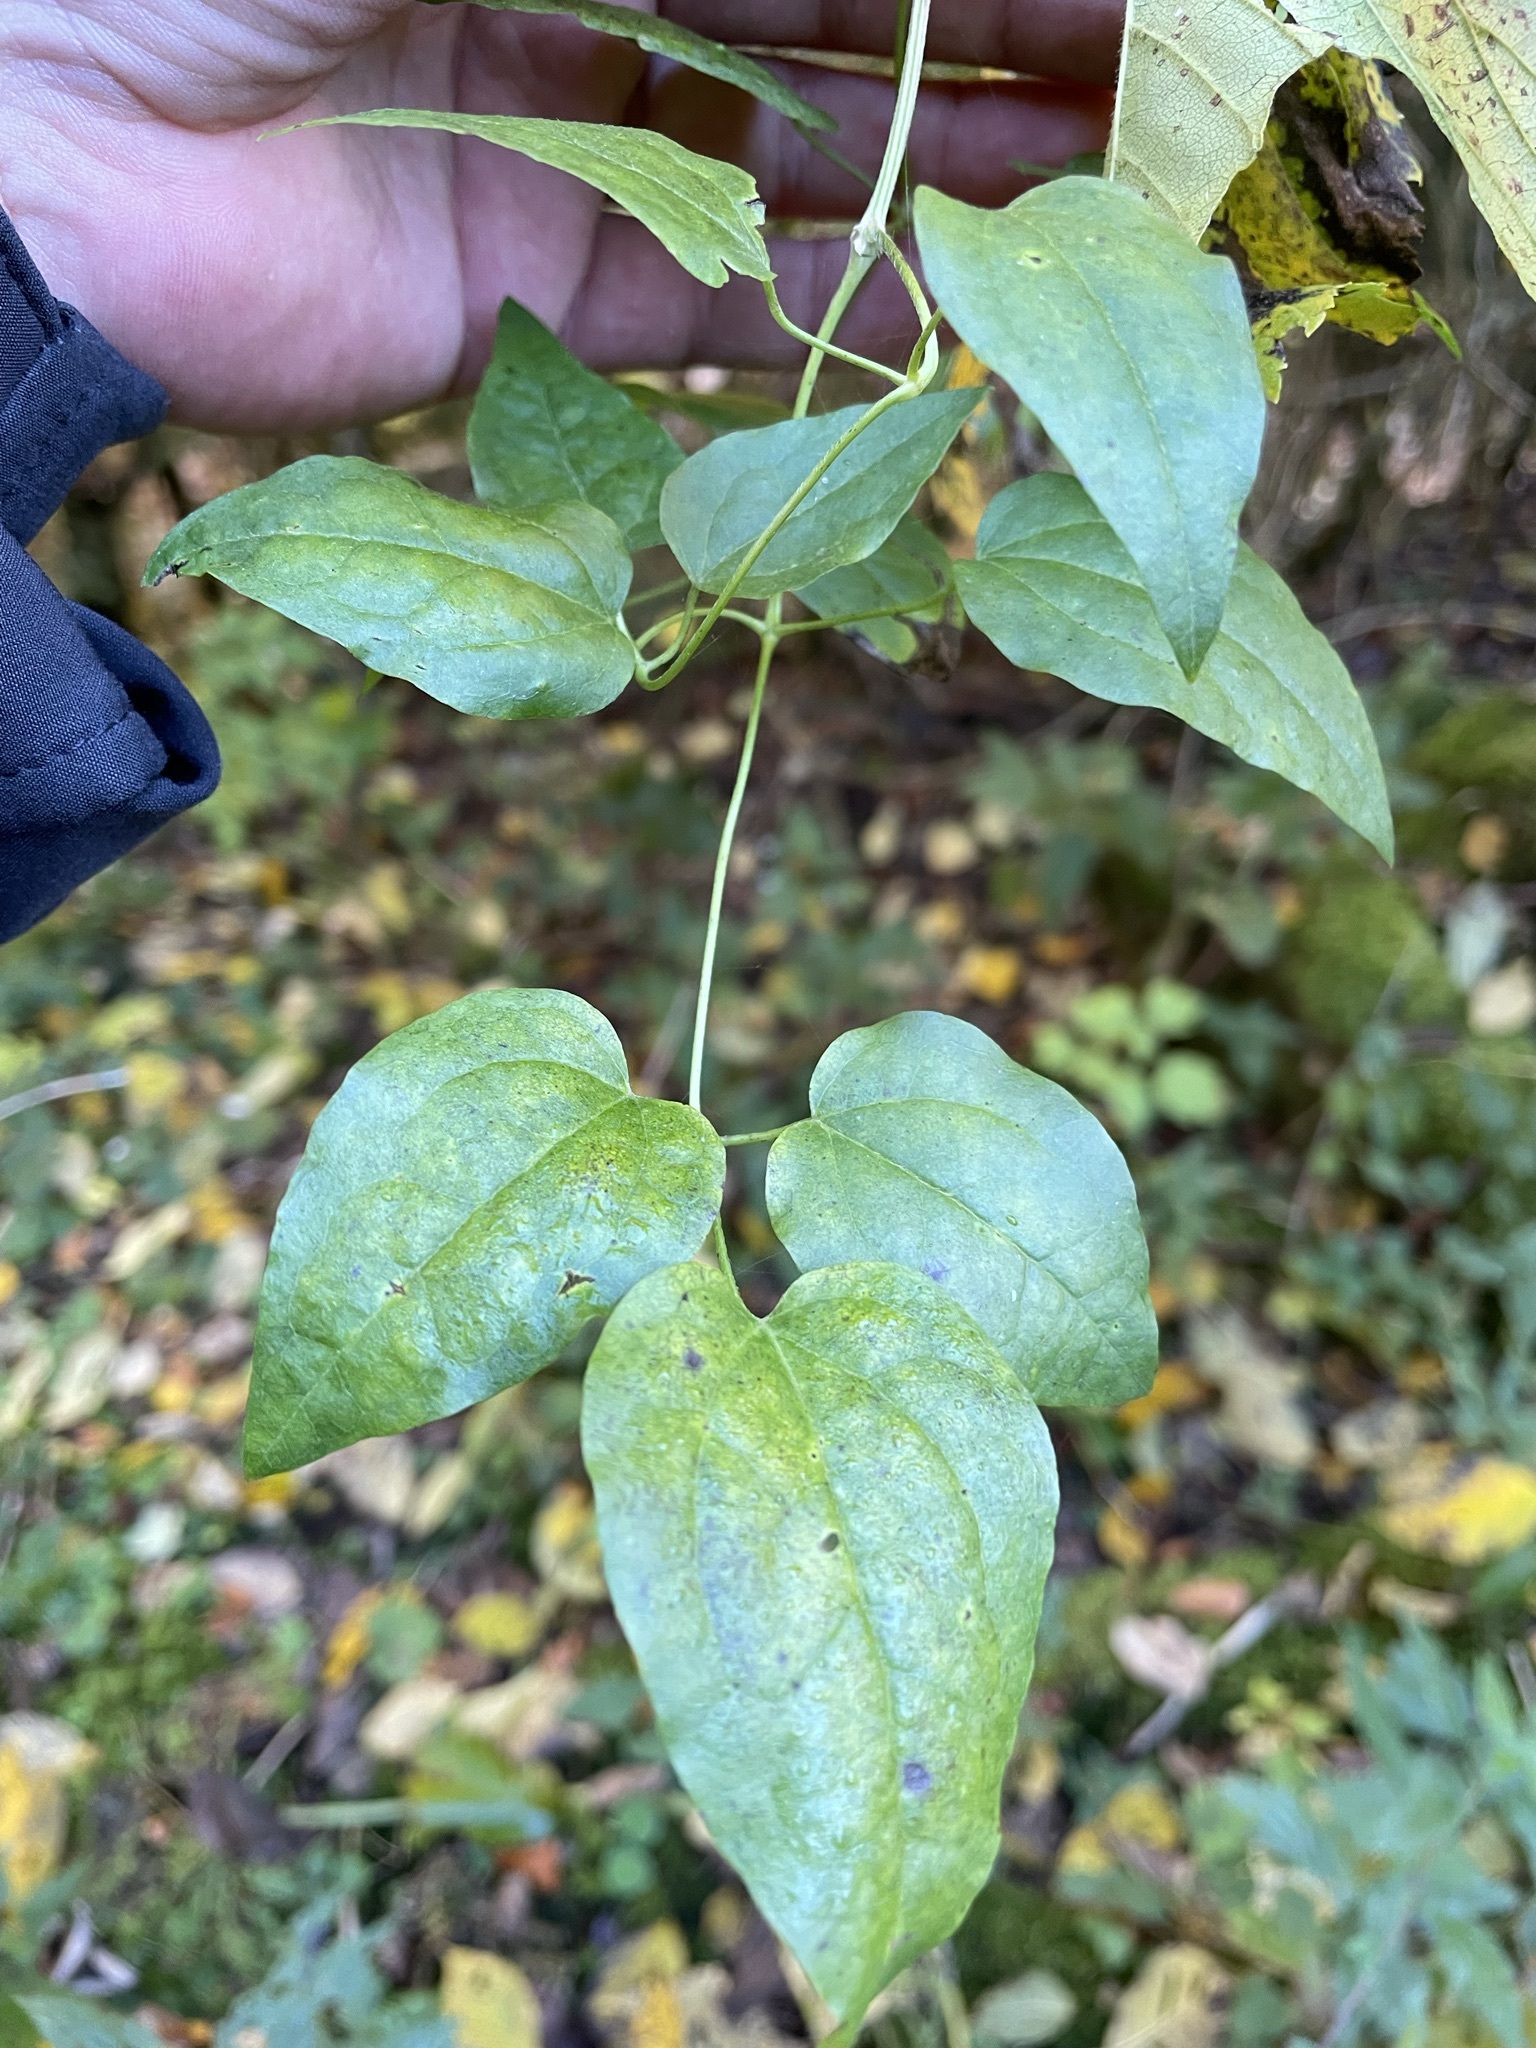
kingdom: Plantae
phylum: Tracheophyta
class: Magnoliopsida
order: Ranunculales
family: Ranunculaceae
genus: Clematis
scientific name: Clematis vitalba
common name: Evergreen clematis
